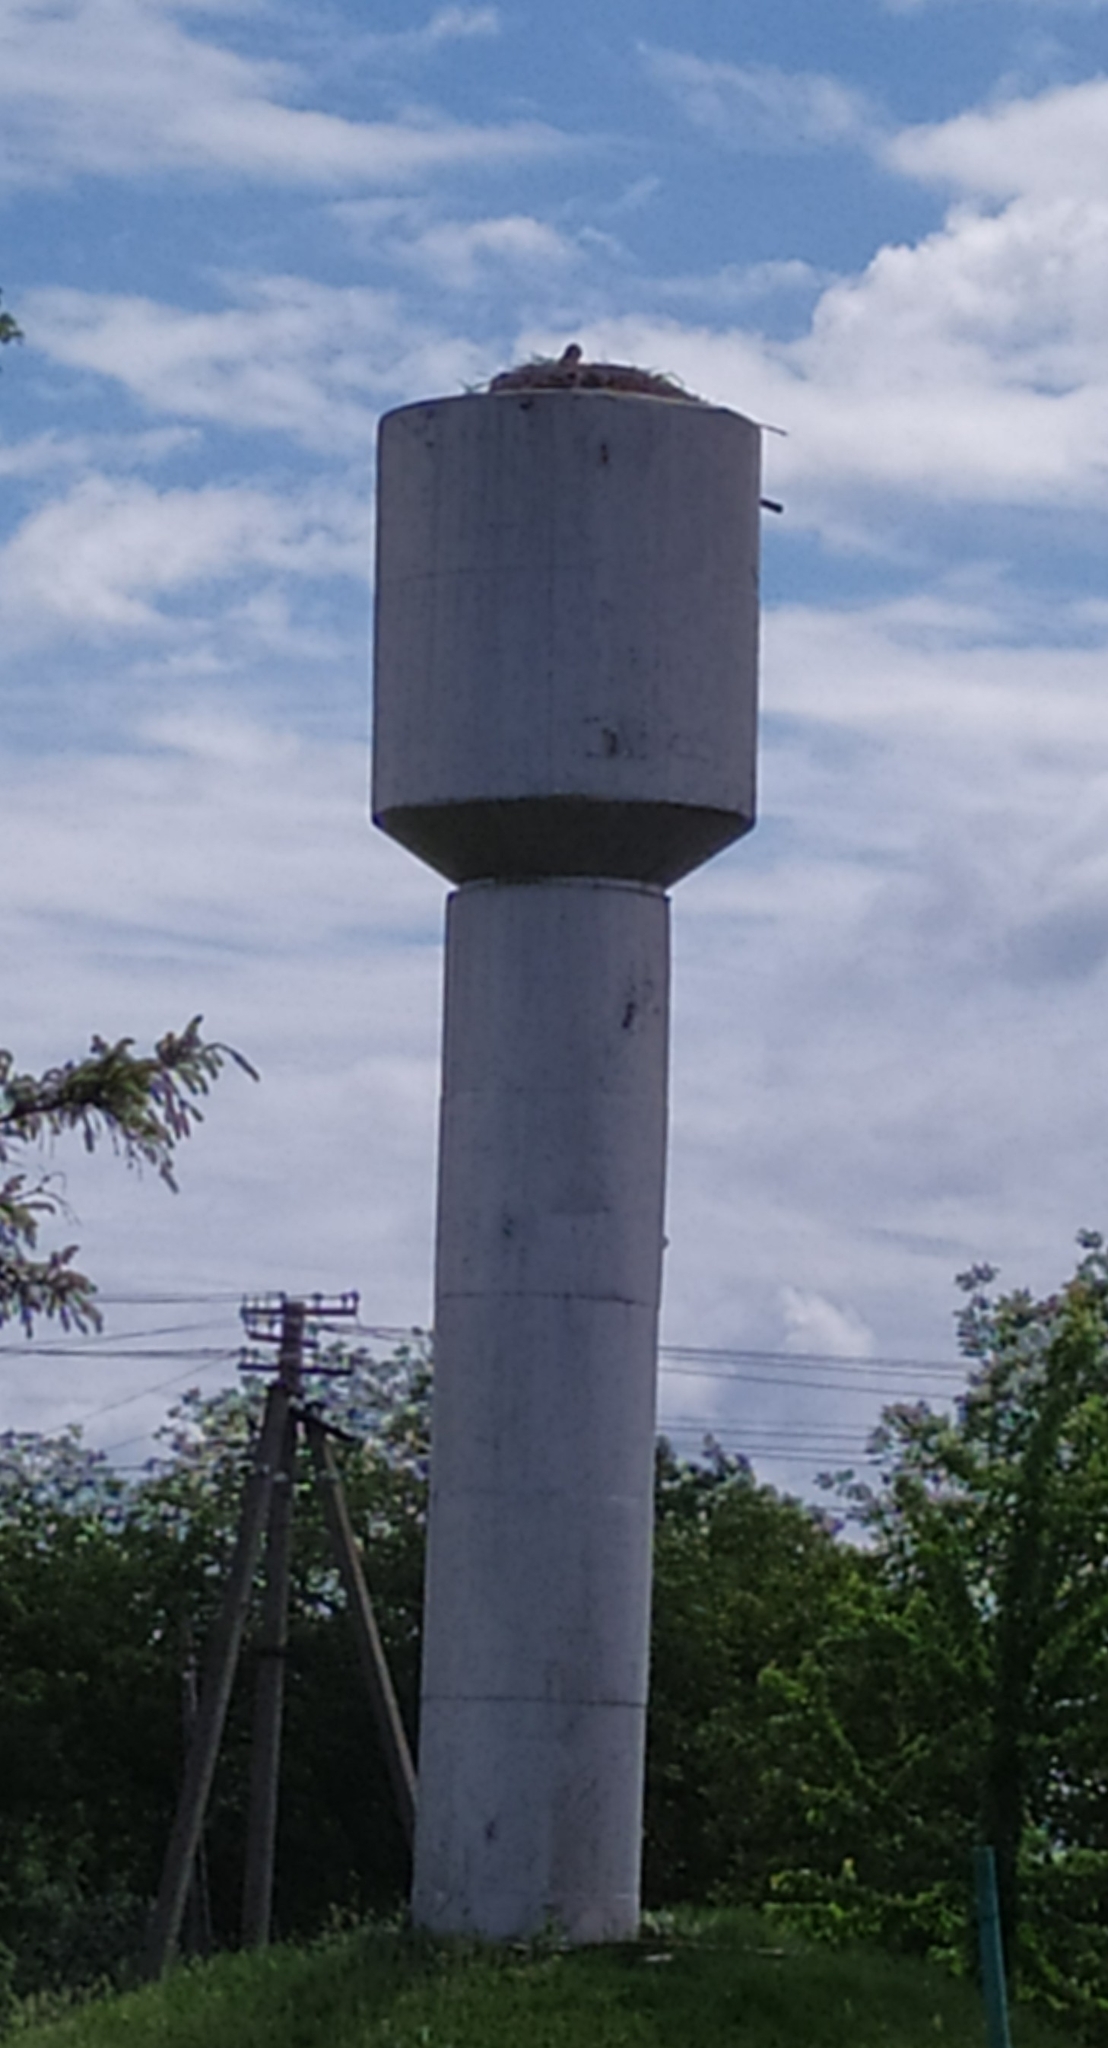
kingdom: Animalia
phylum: Chordata
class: Aves
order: Ciconiiformes
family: Ciconiidae
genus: Ciconia
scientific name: Ciconia ciconia
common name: White stork
